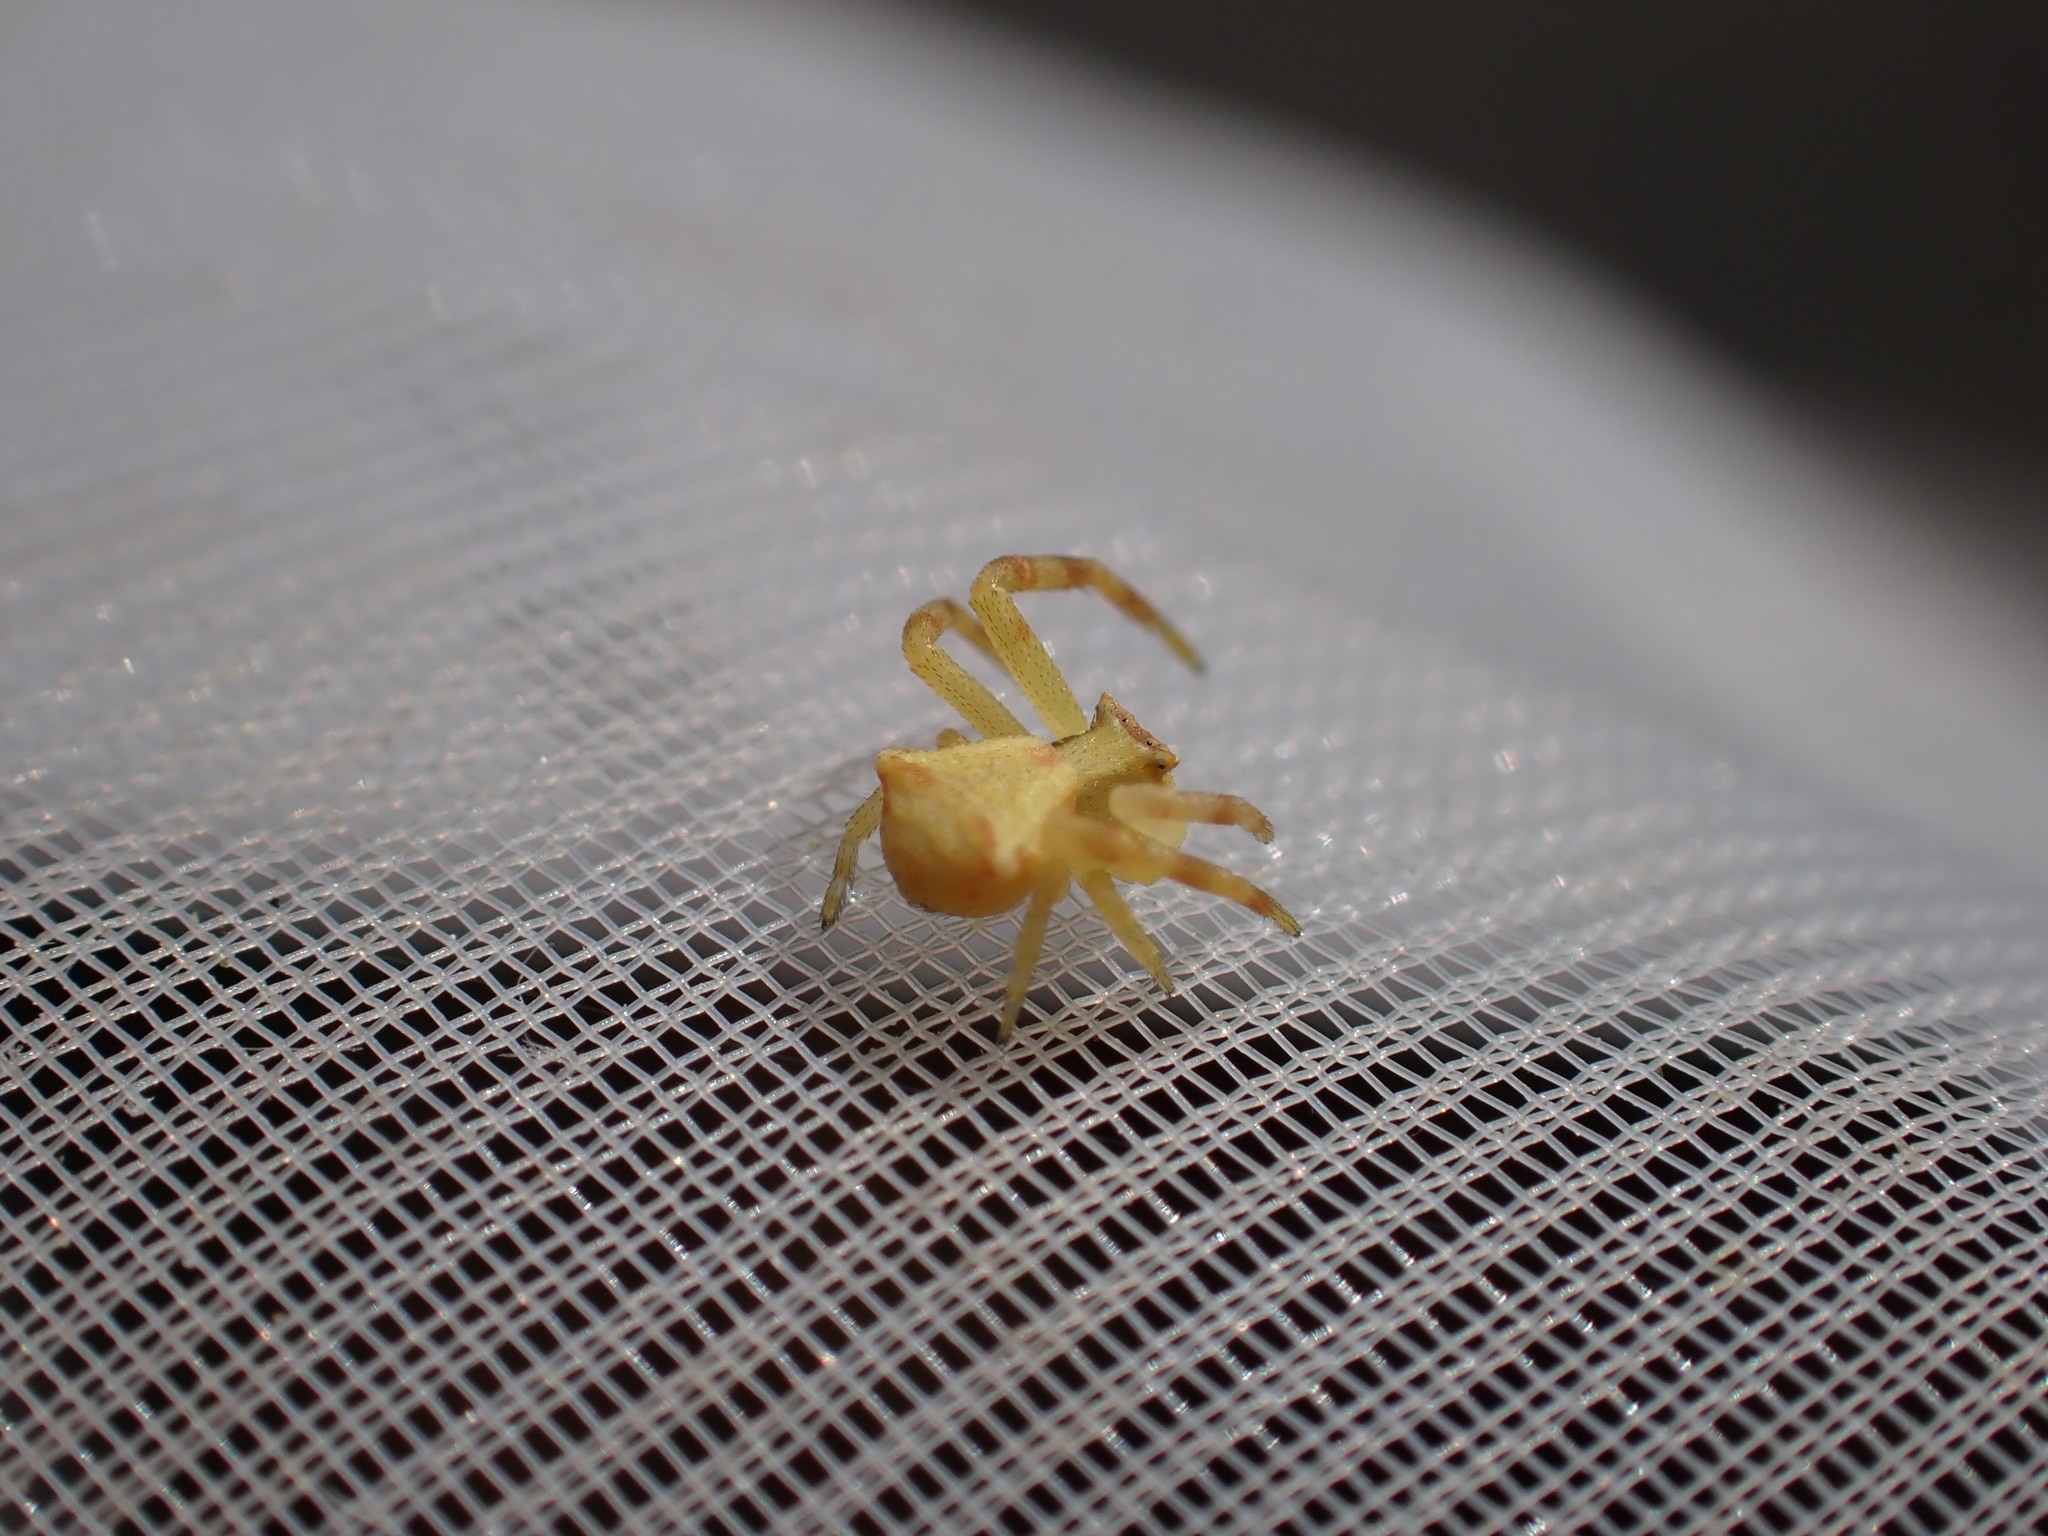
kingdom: Animalia
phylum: Arthropoda
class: Arachnida
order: Araneae
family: Thomisidae
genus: Thomisus
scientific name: Thomisus onustus
